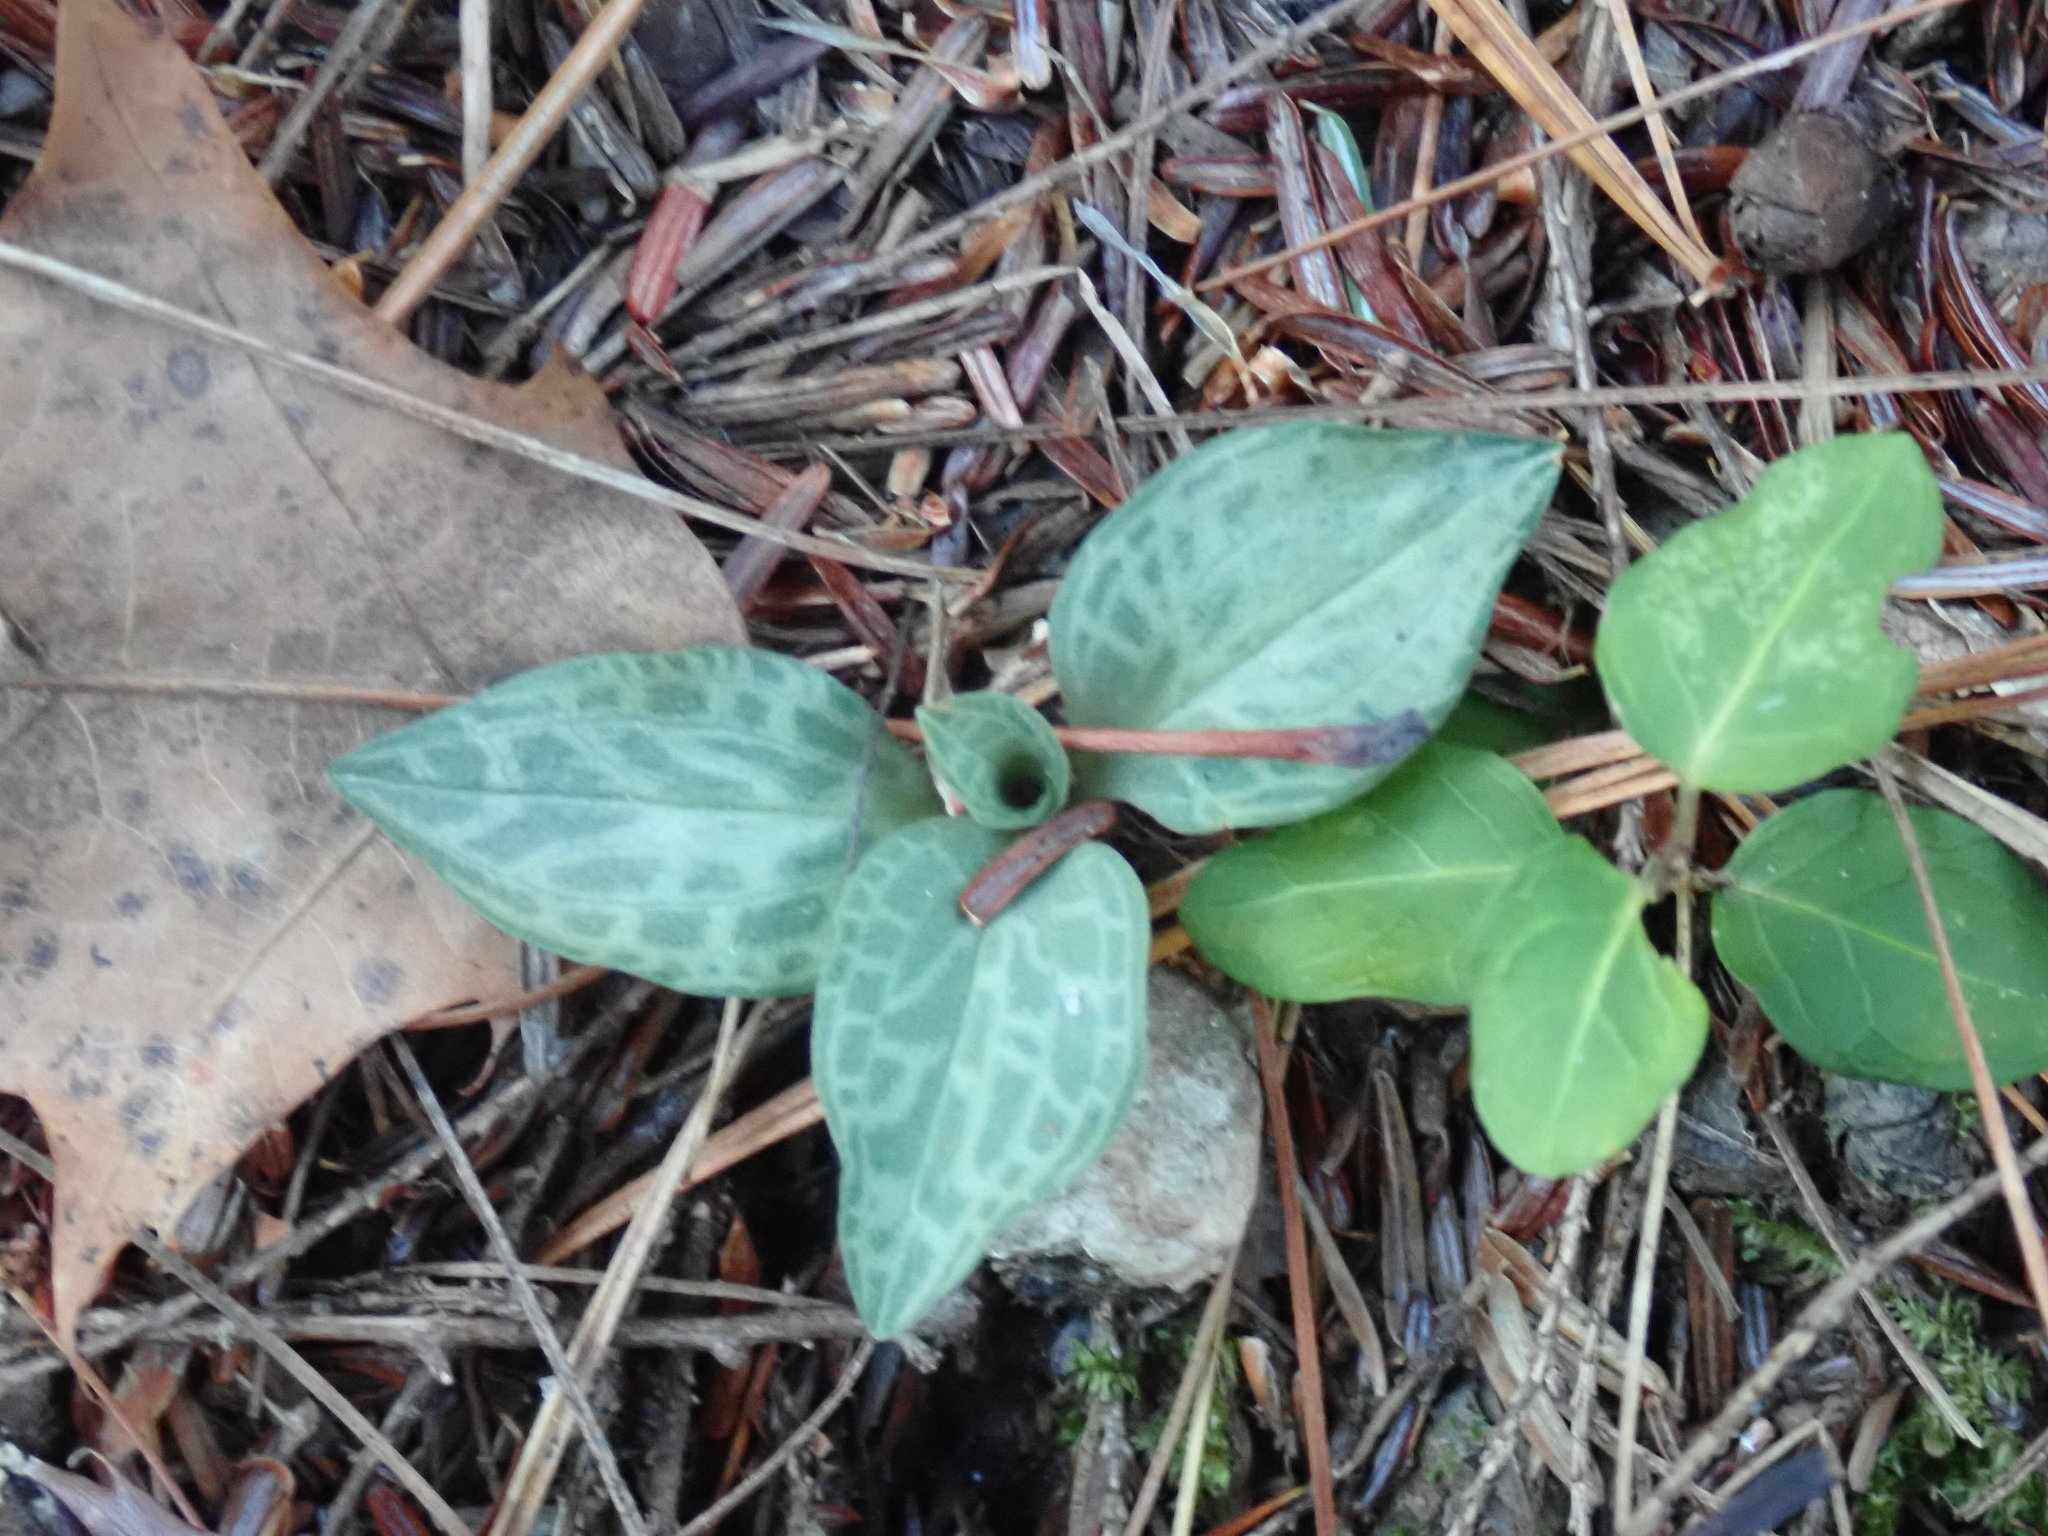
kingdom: Plantae
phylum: Tracheophyta
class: Liliopsida
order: Asparagales
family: Orchidaceae
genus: Goodyera
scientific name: Goodyera tesselata
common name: Checkered rattlesnake-plantain
